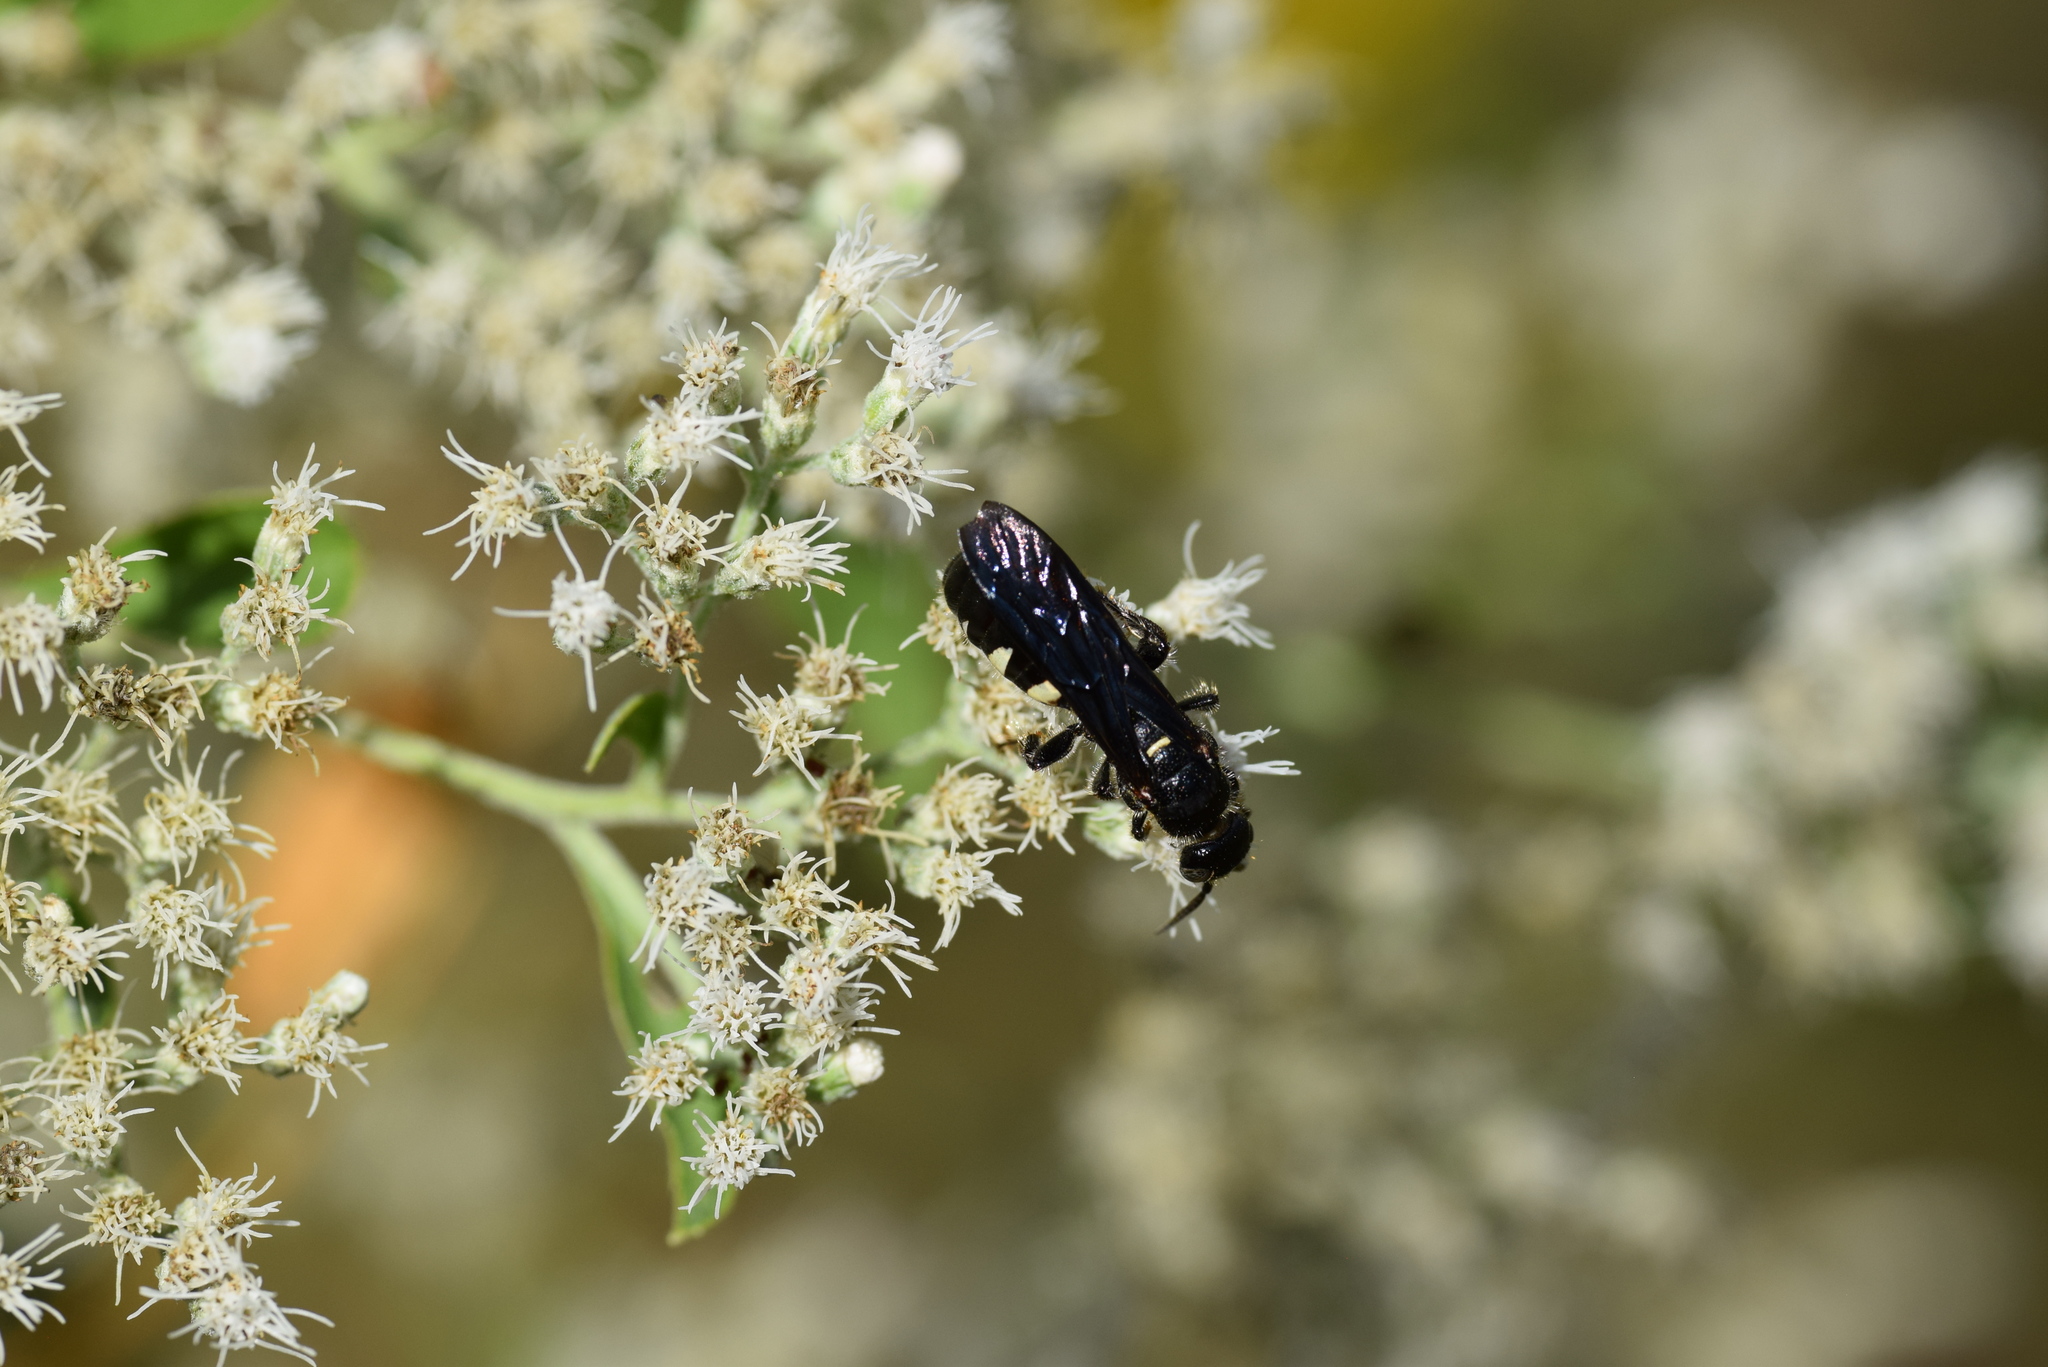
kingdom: Animalia
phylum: Arthropoda
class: Insecta
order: Hymenoptera
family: Tiphiidae
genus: Myzinum
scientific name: Myzinum obscurum
